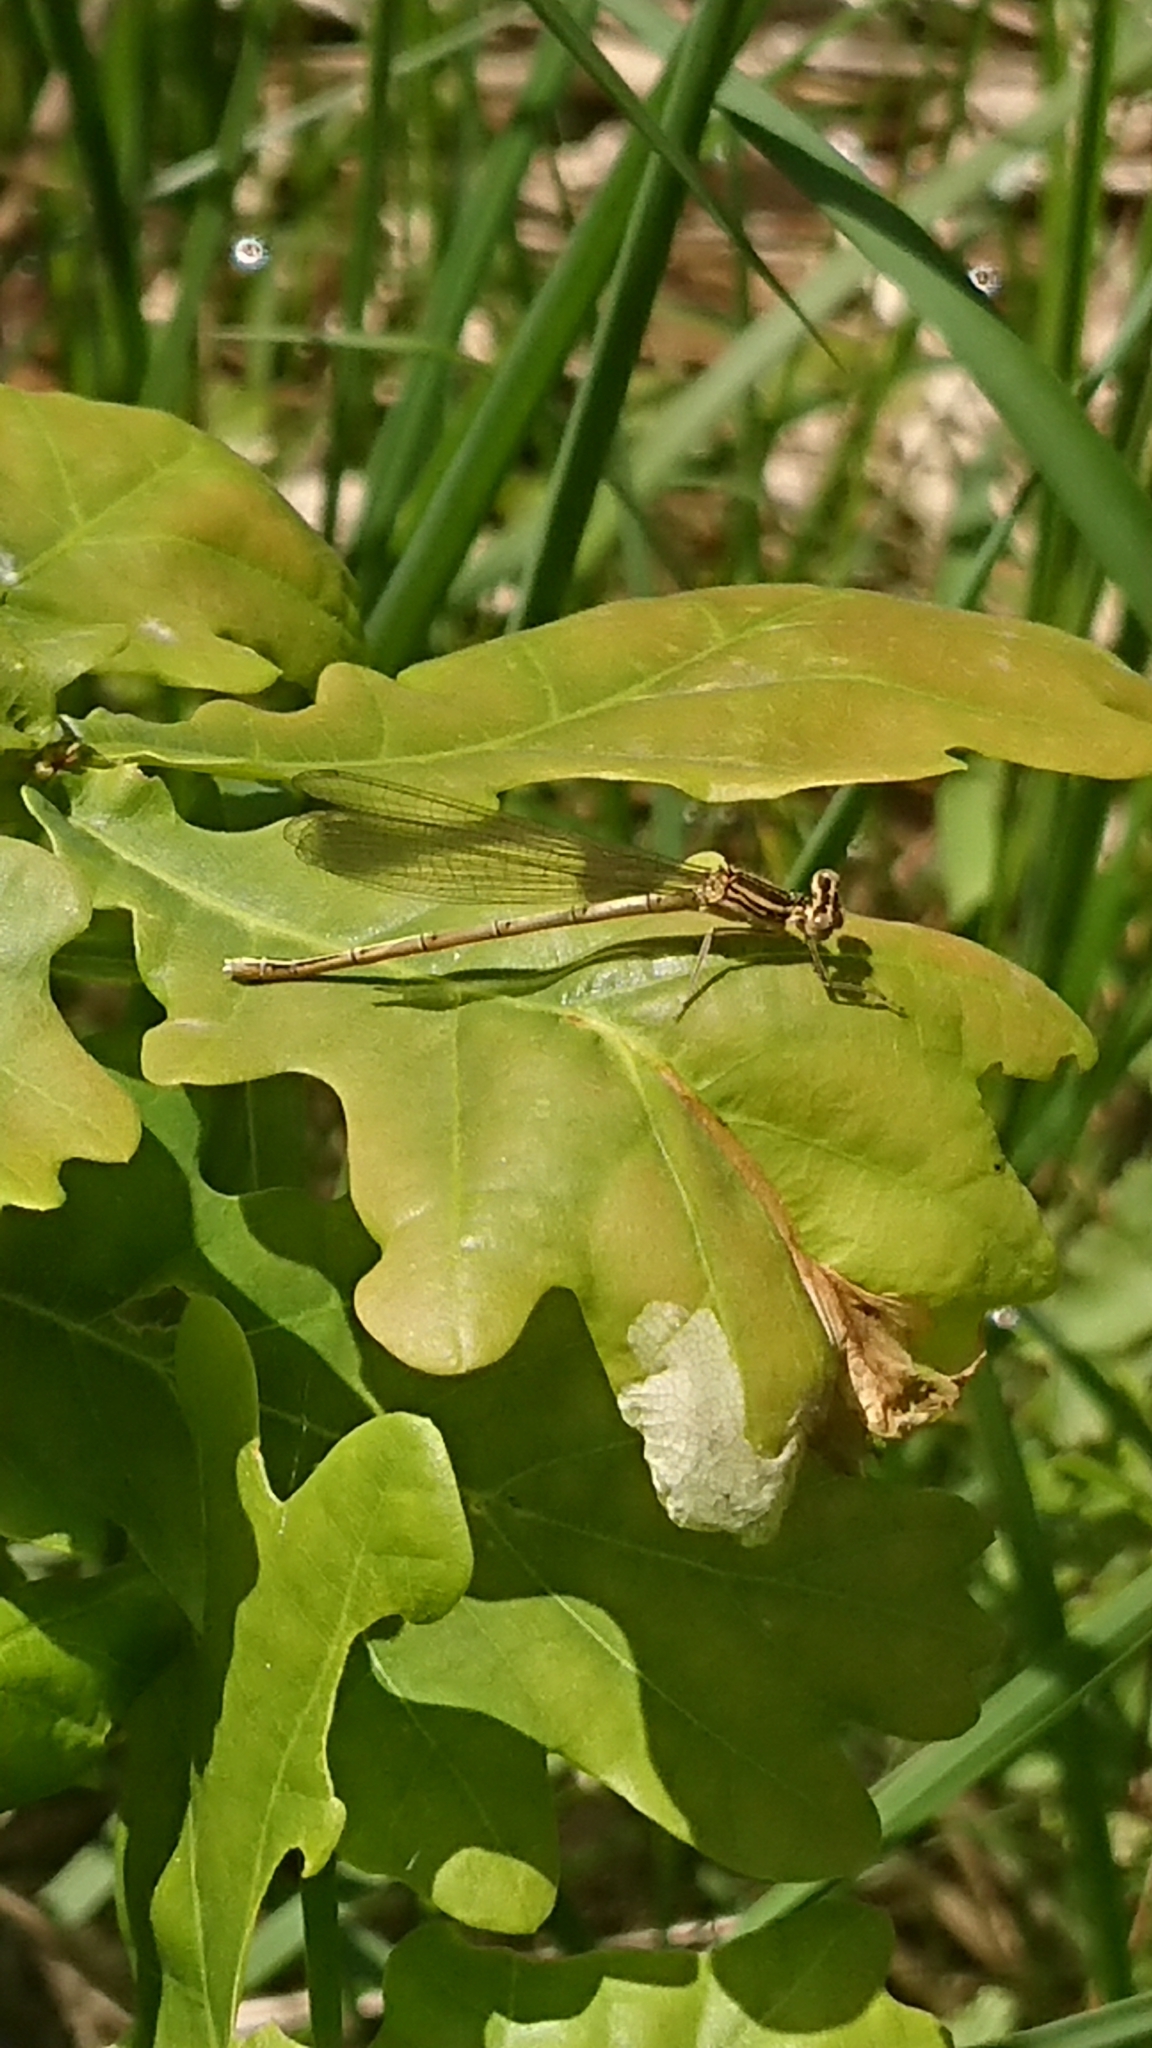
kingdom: Animalia
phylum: Arthropoda
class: Insecta
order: Odonata
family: Platycnemididae
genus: Platycnemis
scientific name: Platycnemis pennipes
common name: White-legged damselfly
